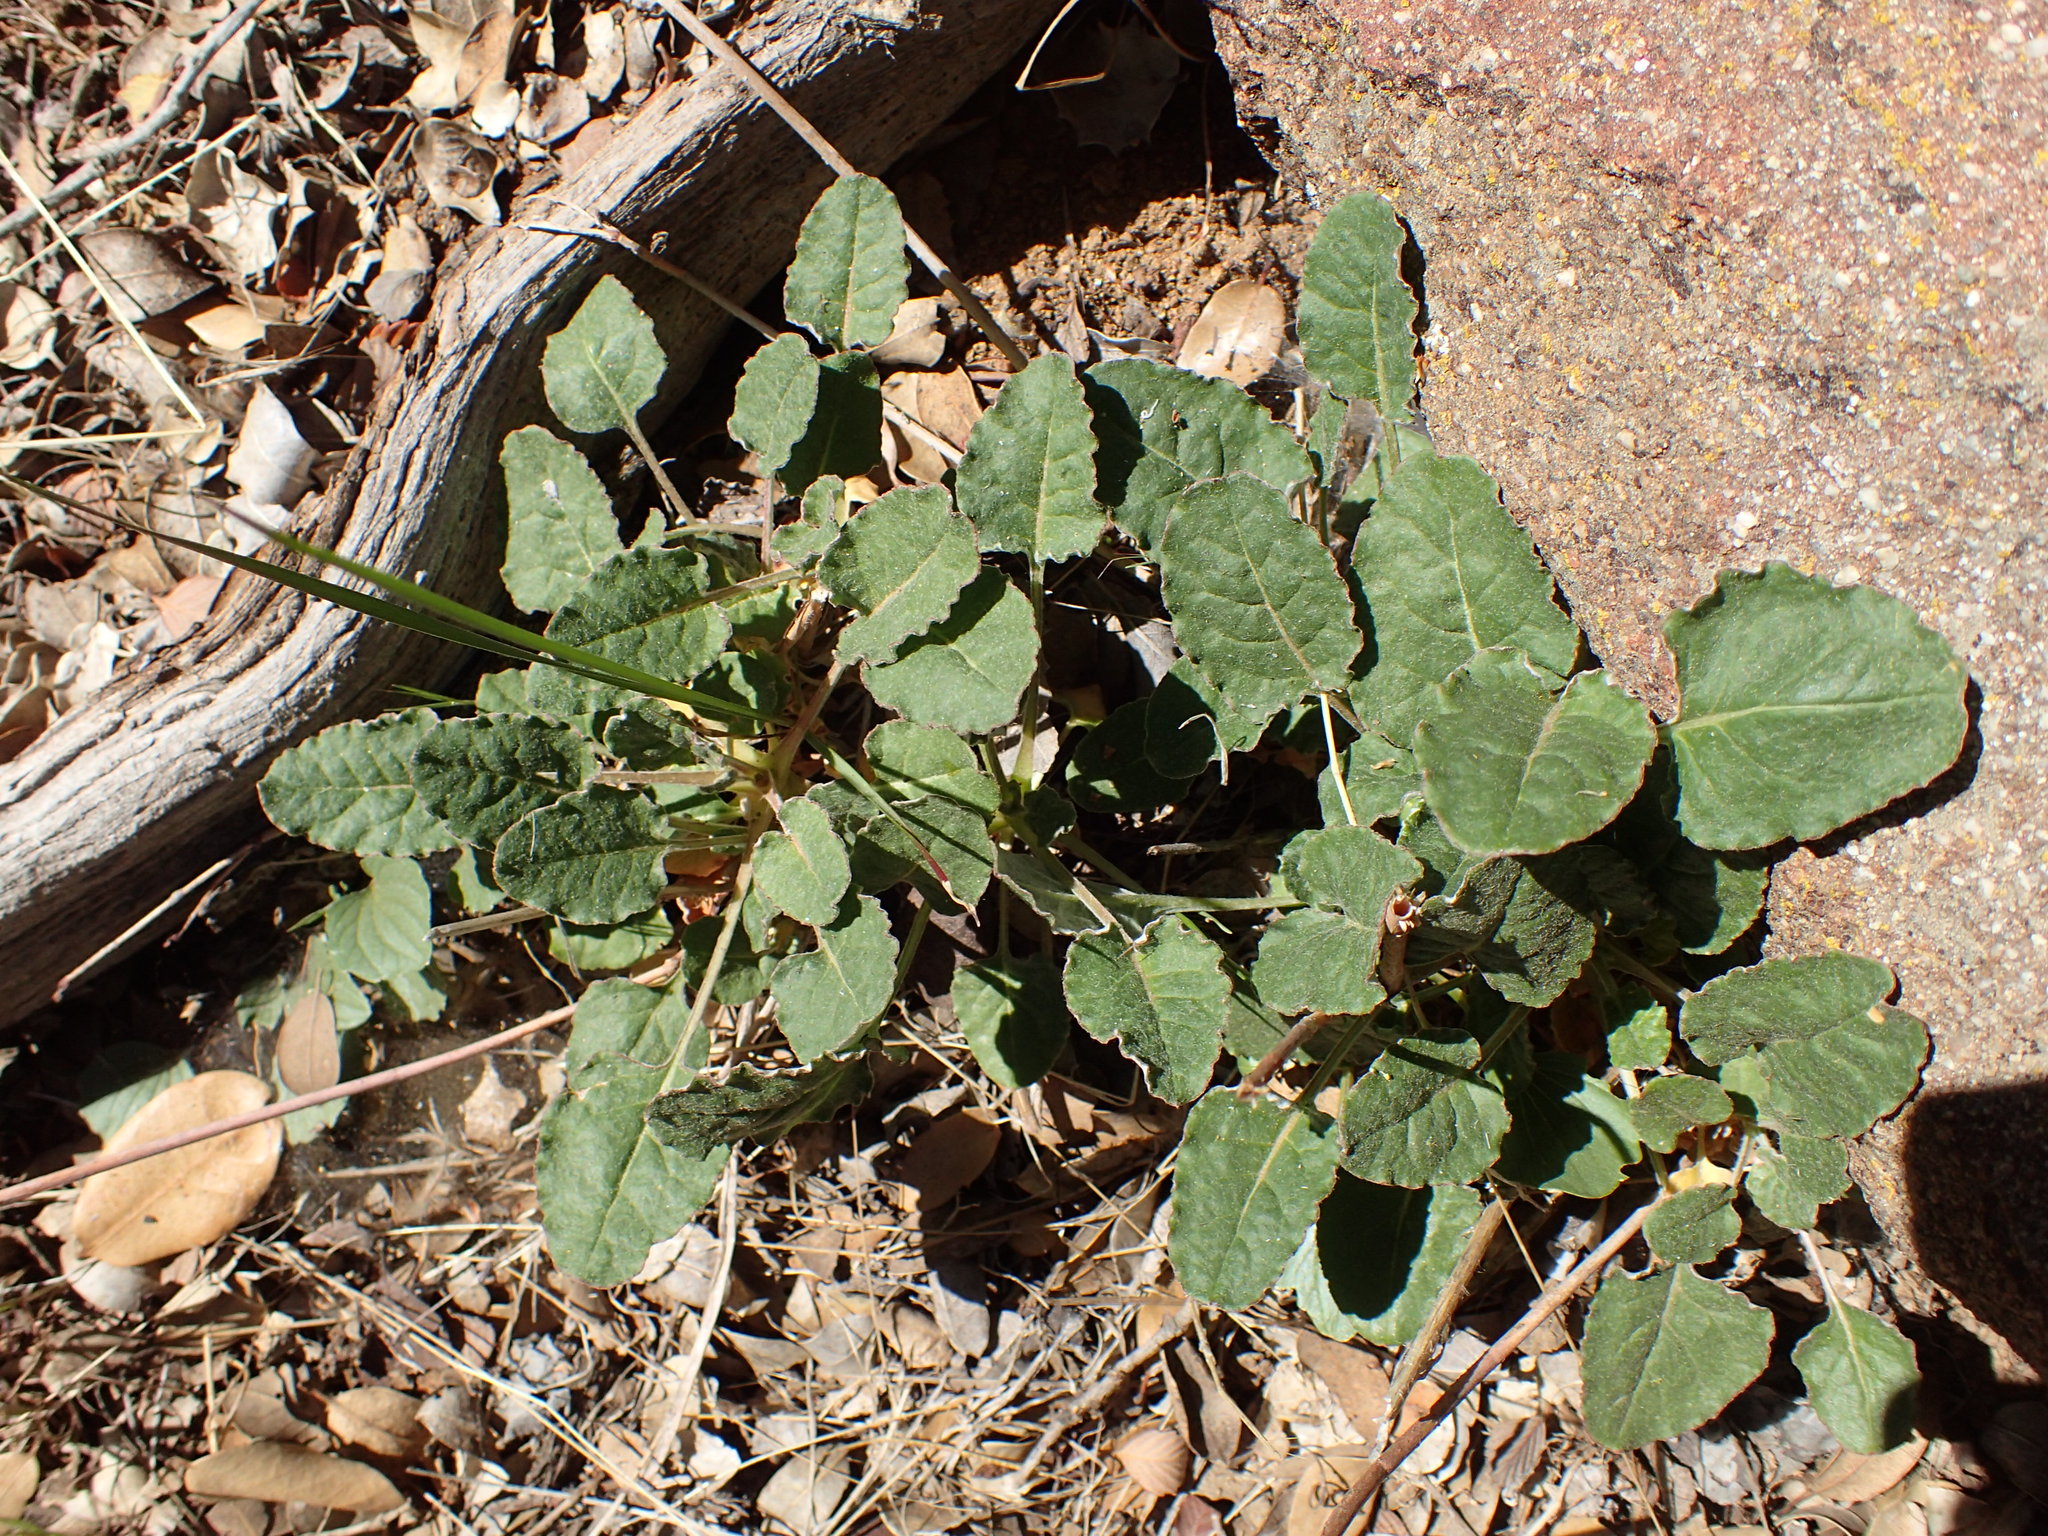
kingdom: Plantae
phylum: Tracheophyta
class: Magnoliopsida
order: Caryophyllales
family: Polygonaceae
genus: Eriogonum
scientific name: Eriogonum nudum
